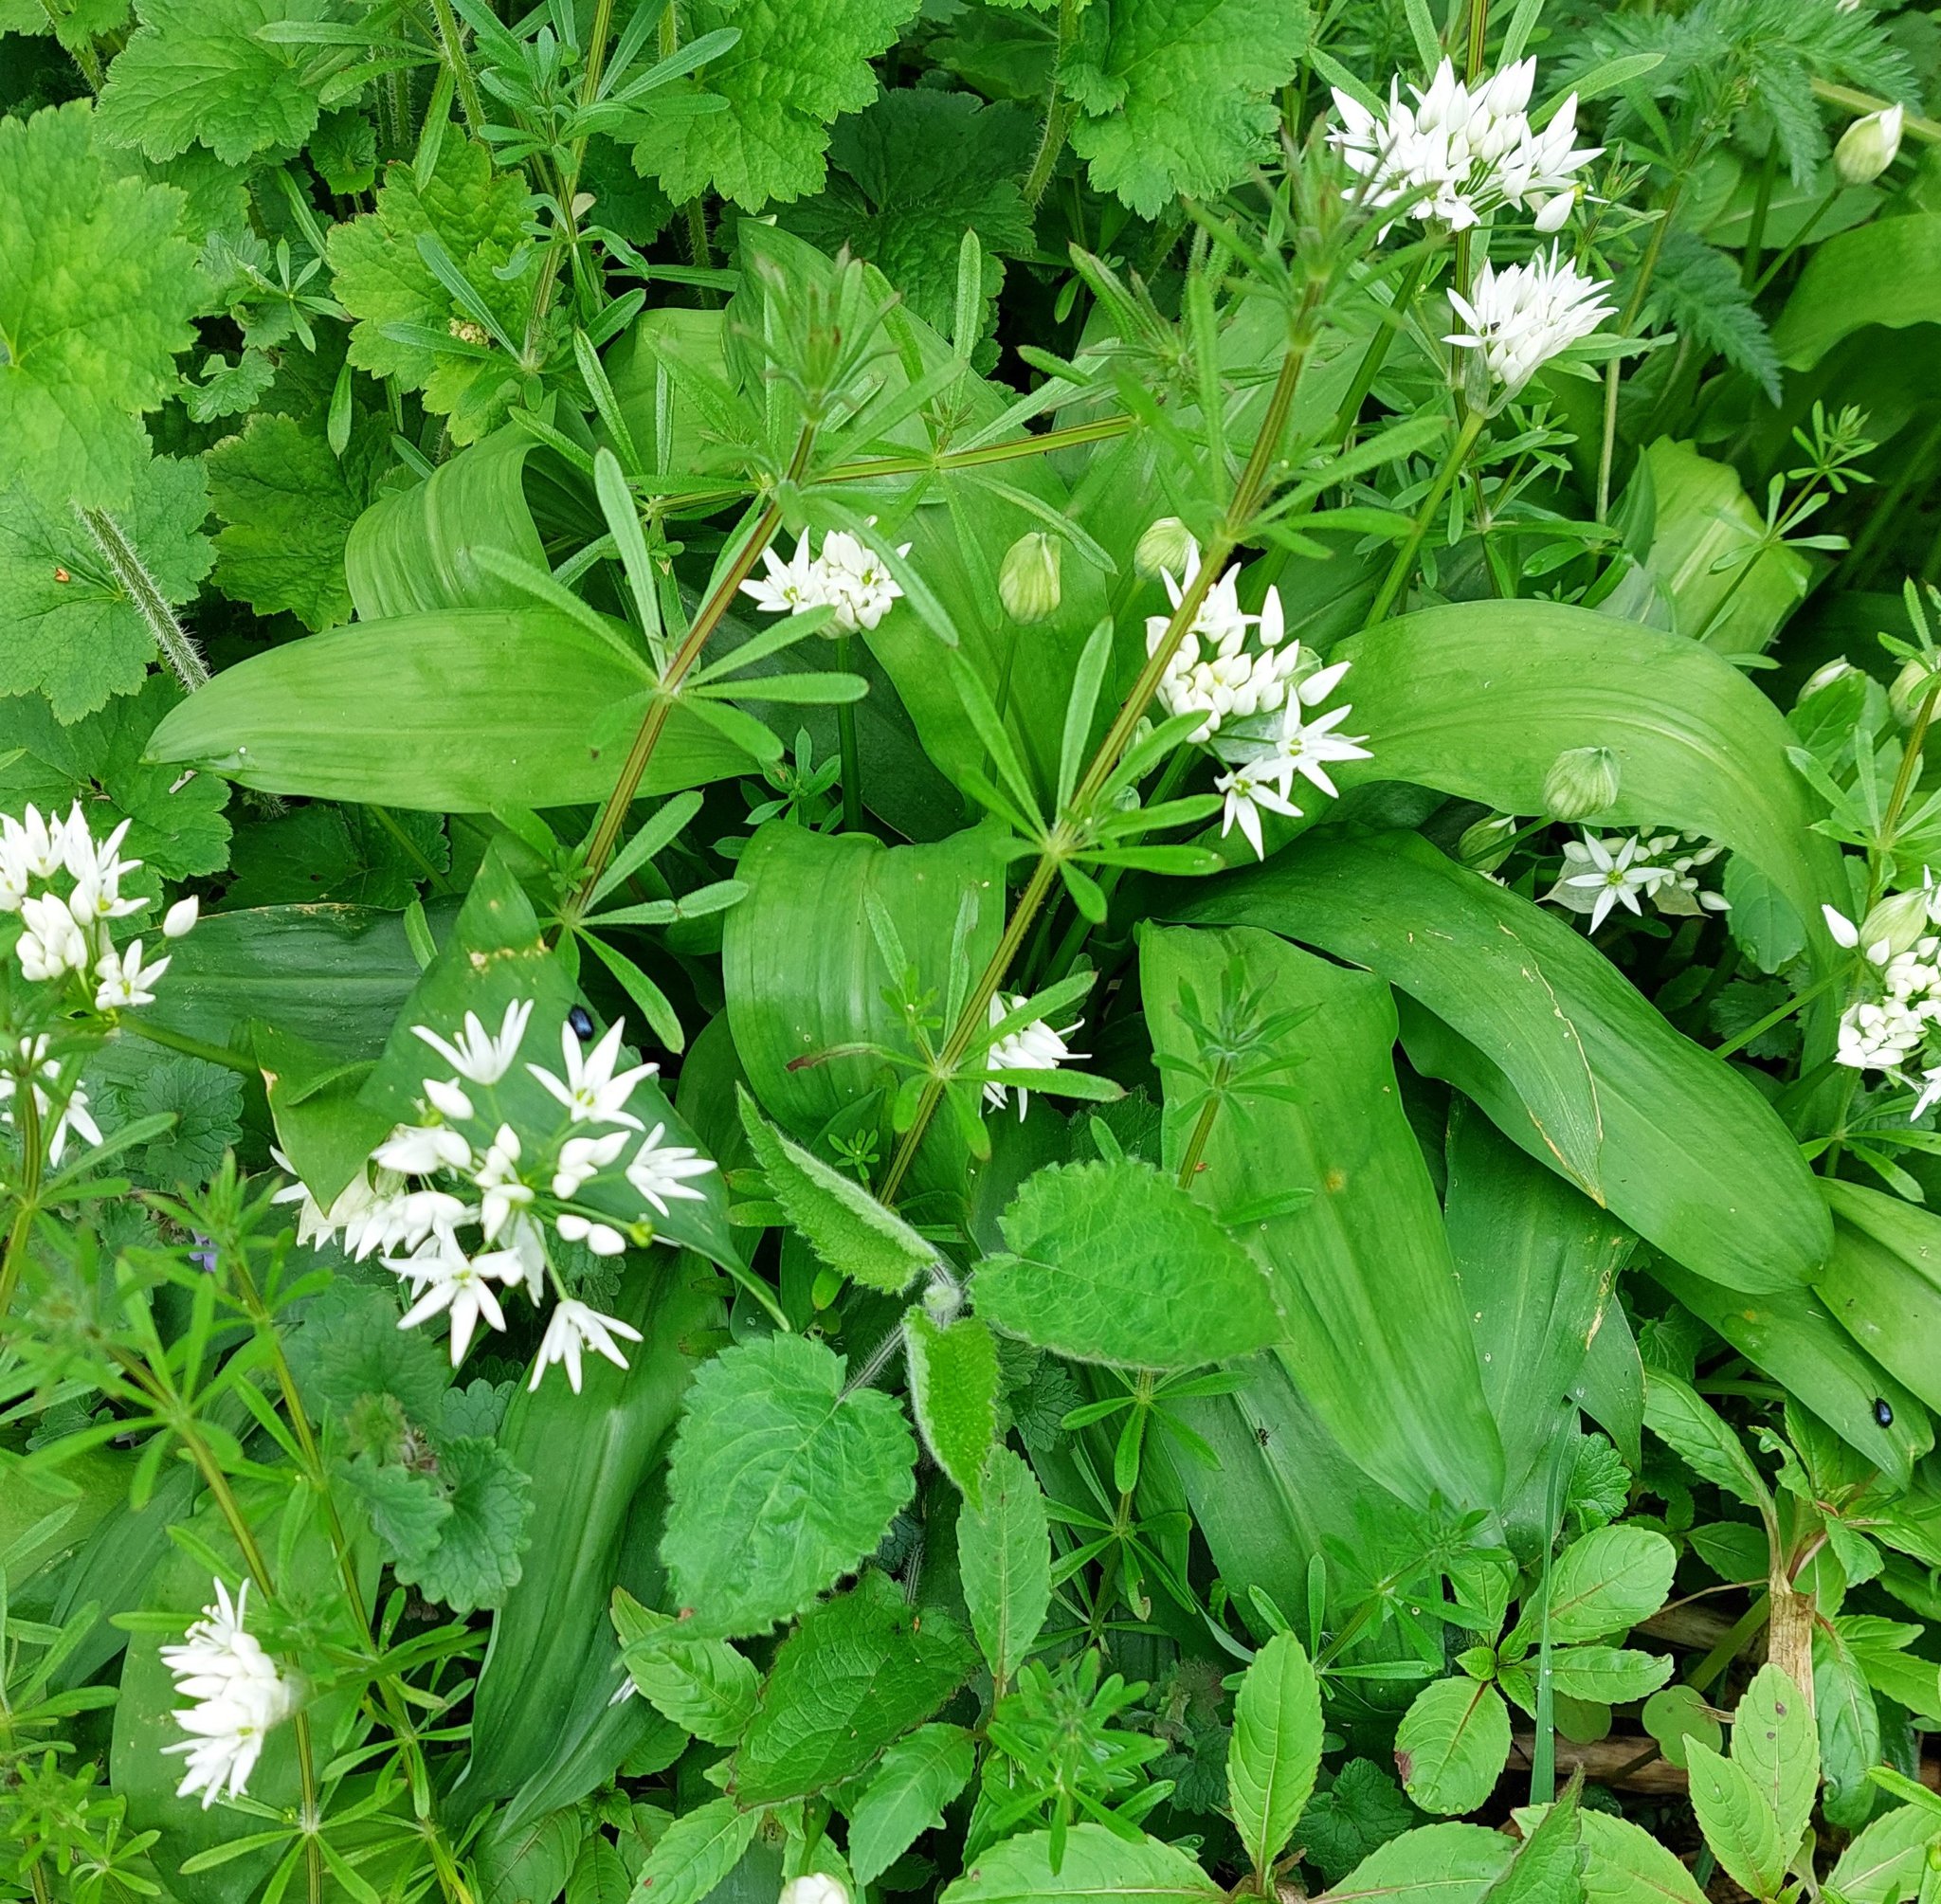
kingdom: Plantae
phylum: Tracheophyta
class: Liliopsida
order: Asparagales
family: Amaryllidaceae
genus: Allium
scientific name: Allium ursinum
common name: Ramsons
